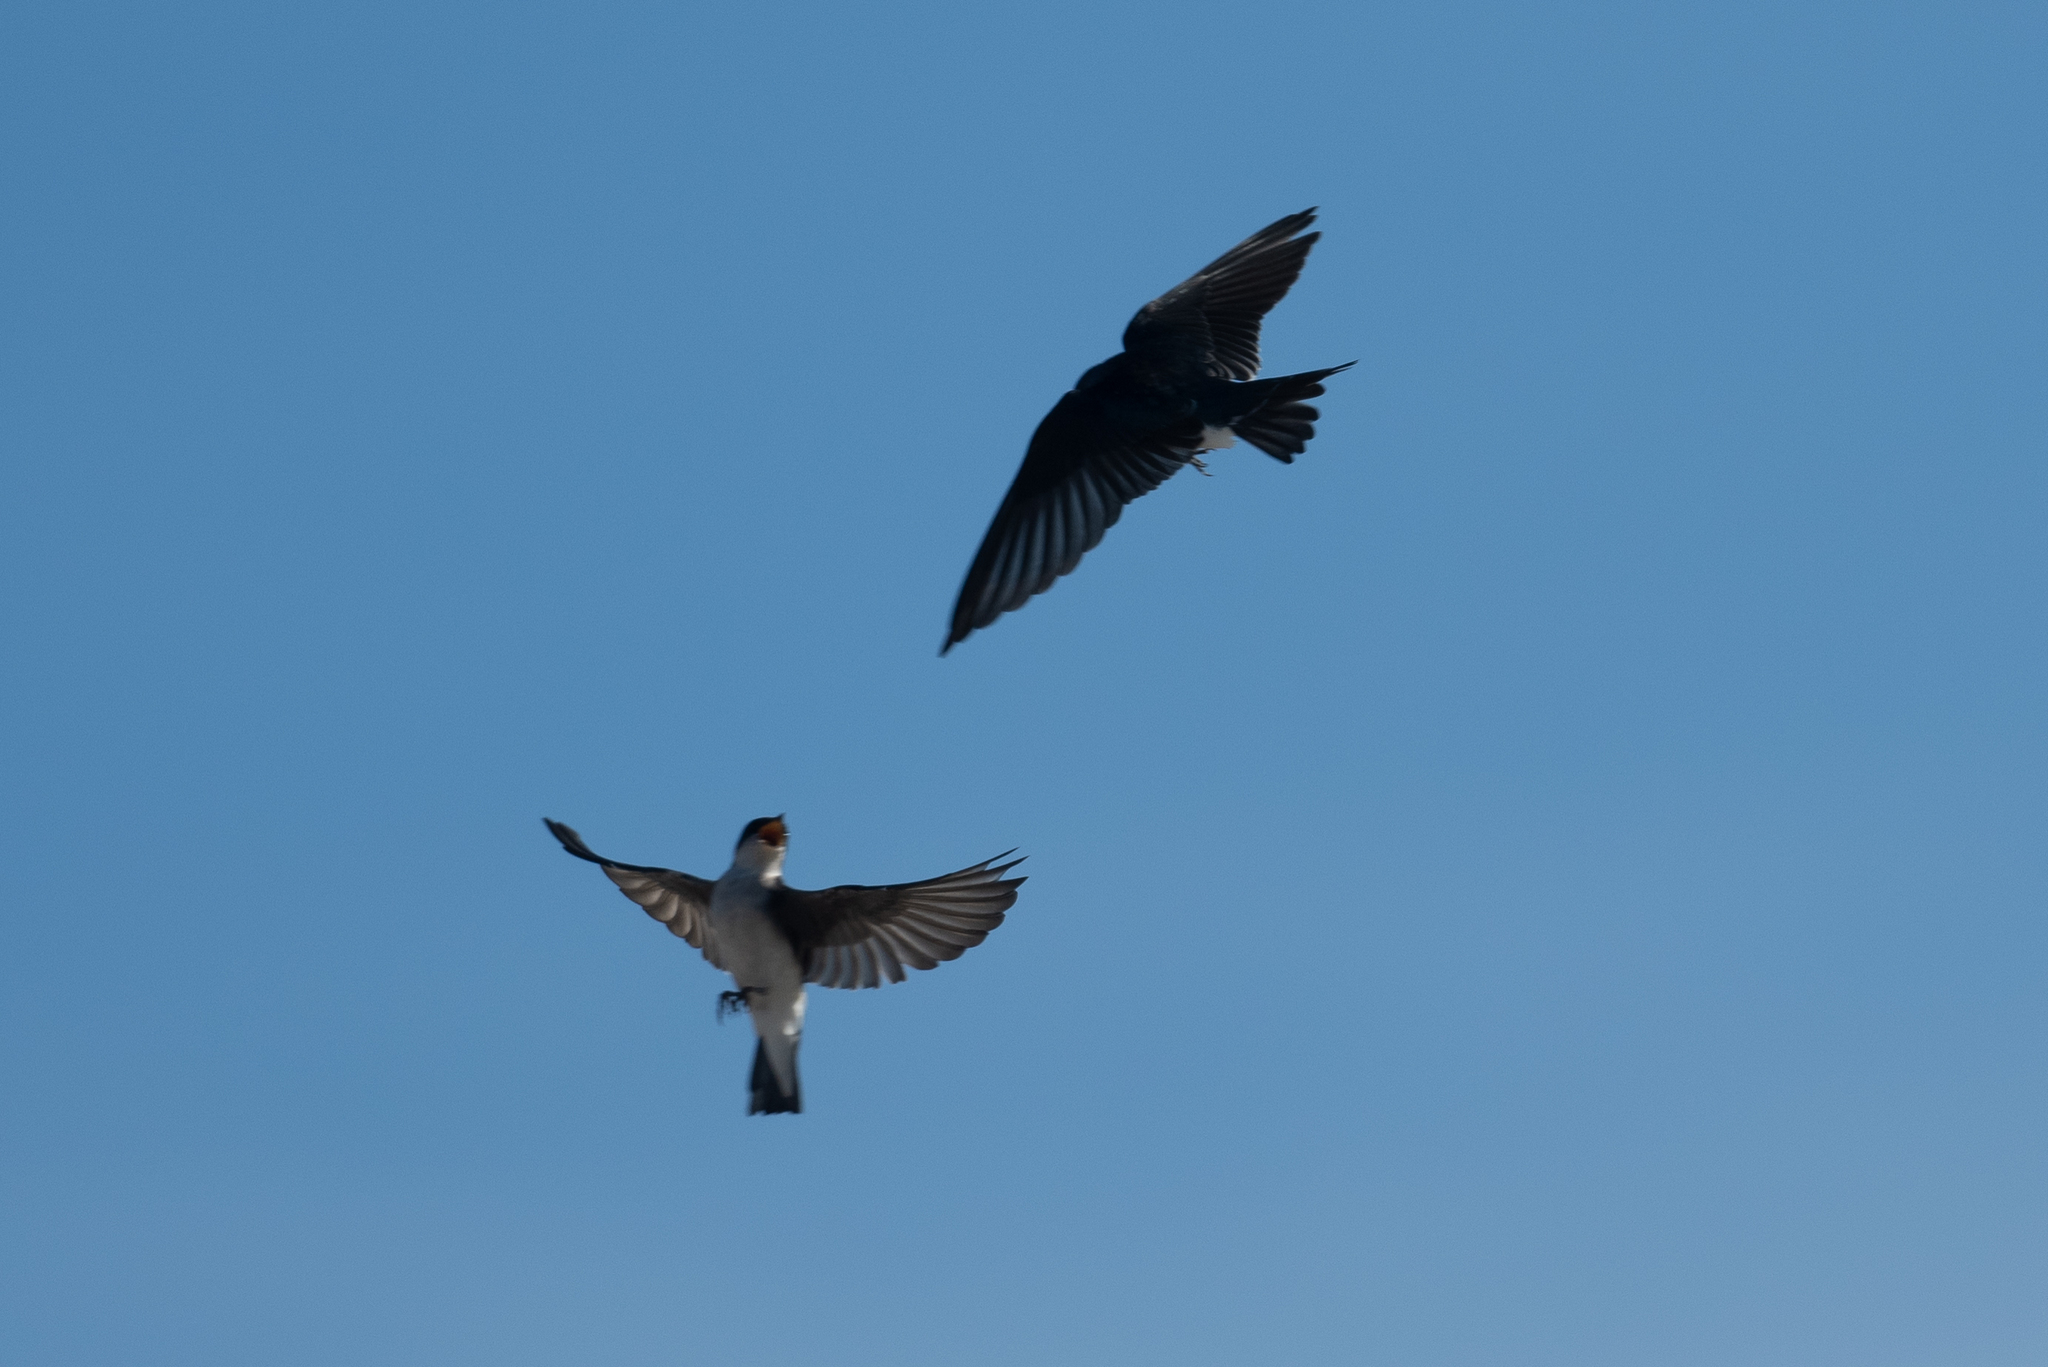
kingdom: Animalia
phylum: Chordata
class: Aves
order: Passeriformes
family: Hirundinidae
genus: Tachycineta
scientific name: Tachycineta bicolor
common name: Tree swallow
